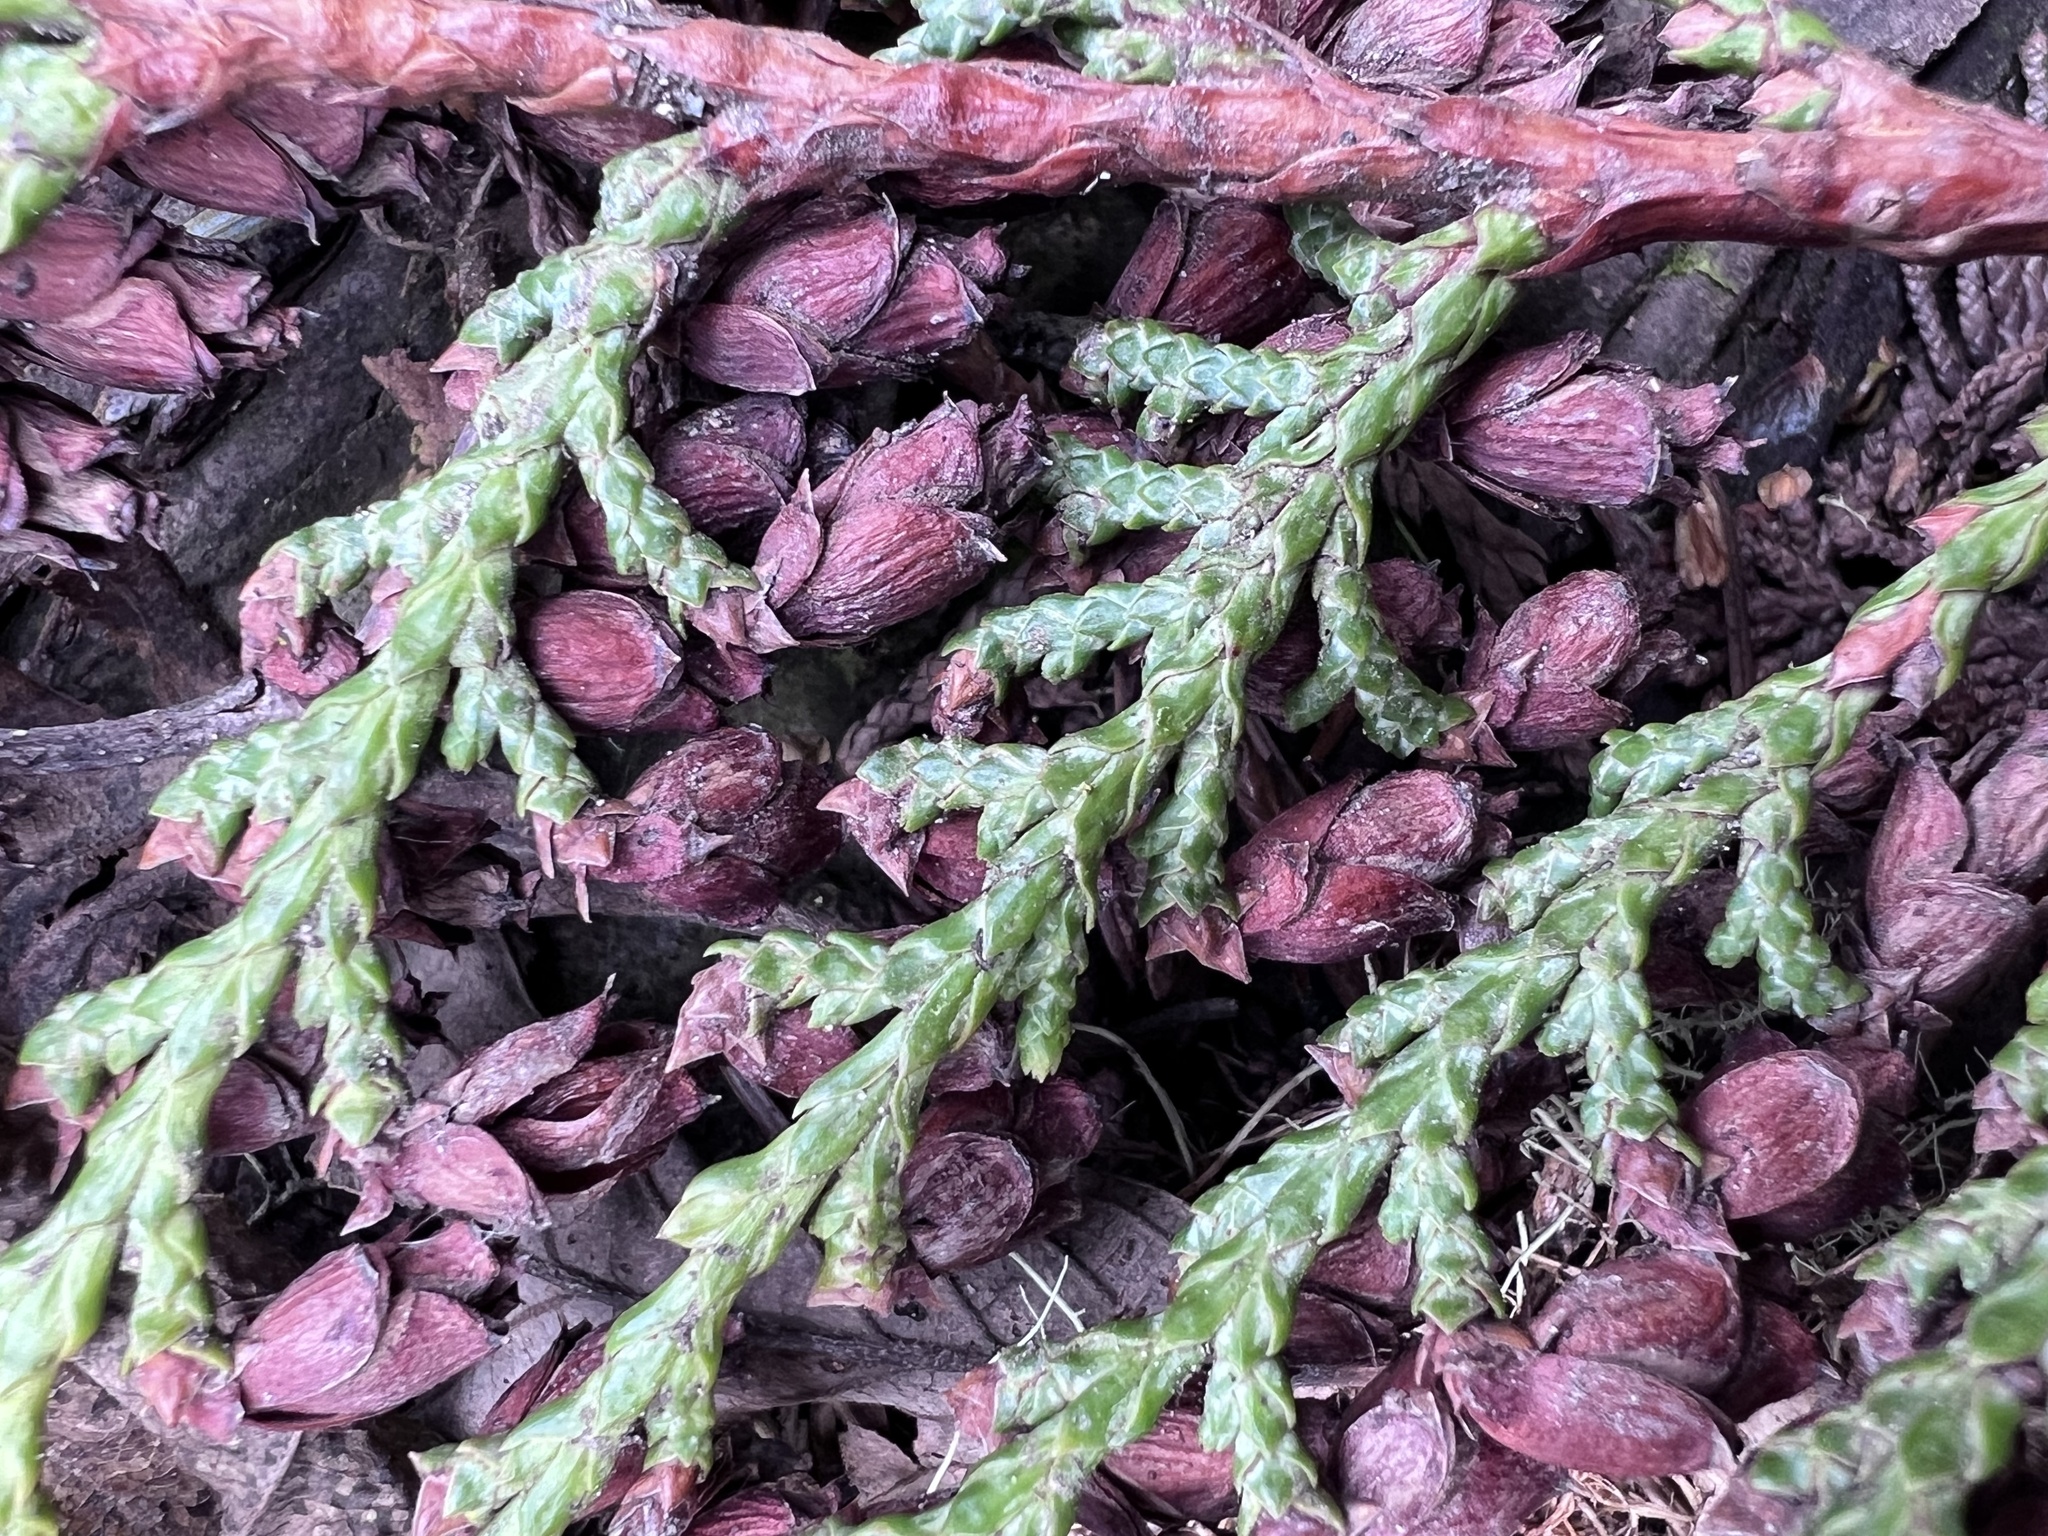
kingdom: Plantae
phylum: Tracheophyta
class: Pinopsida
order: Pinales
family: Cupressaceae
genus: Thuja
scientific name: Thuja plicata
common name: Western red-cedar
